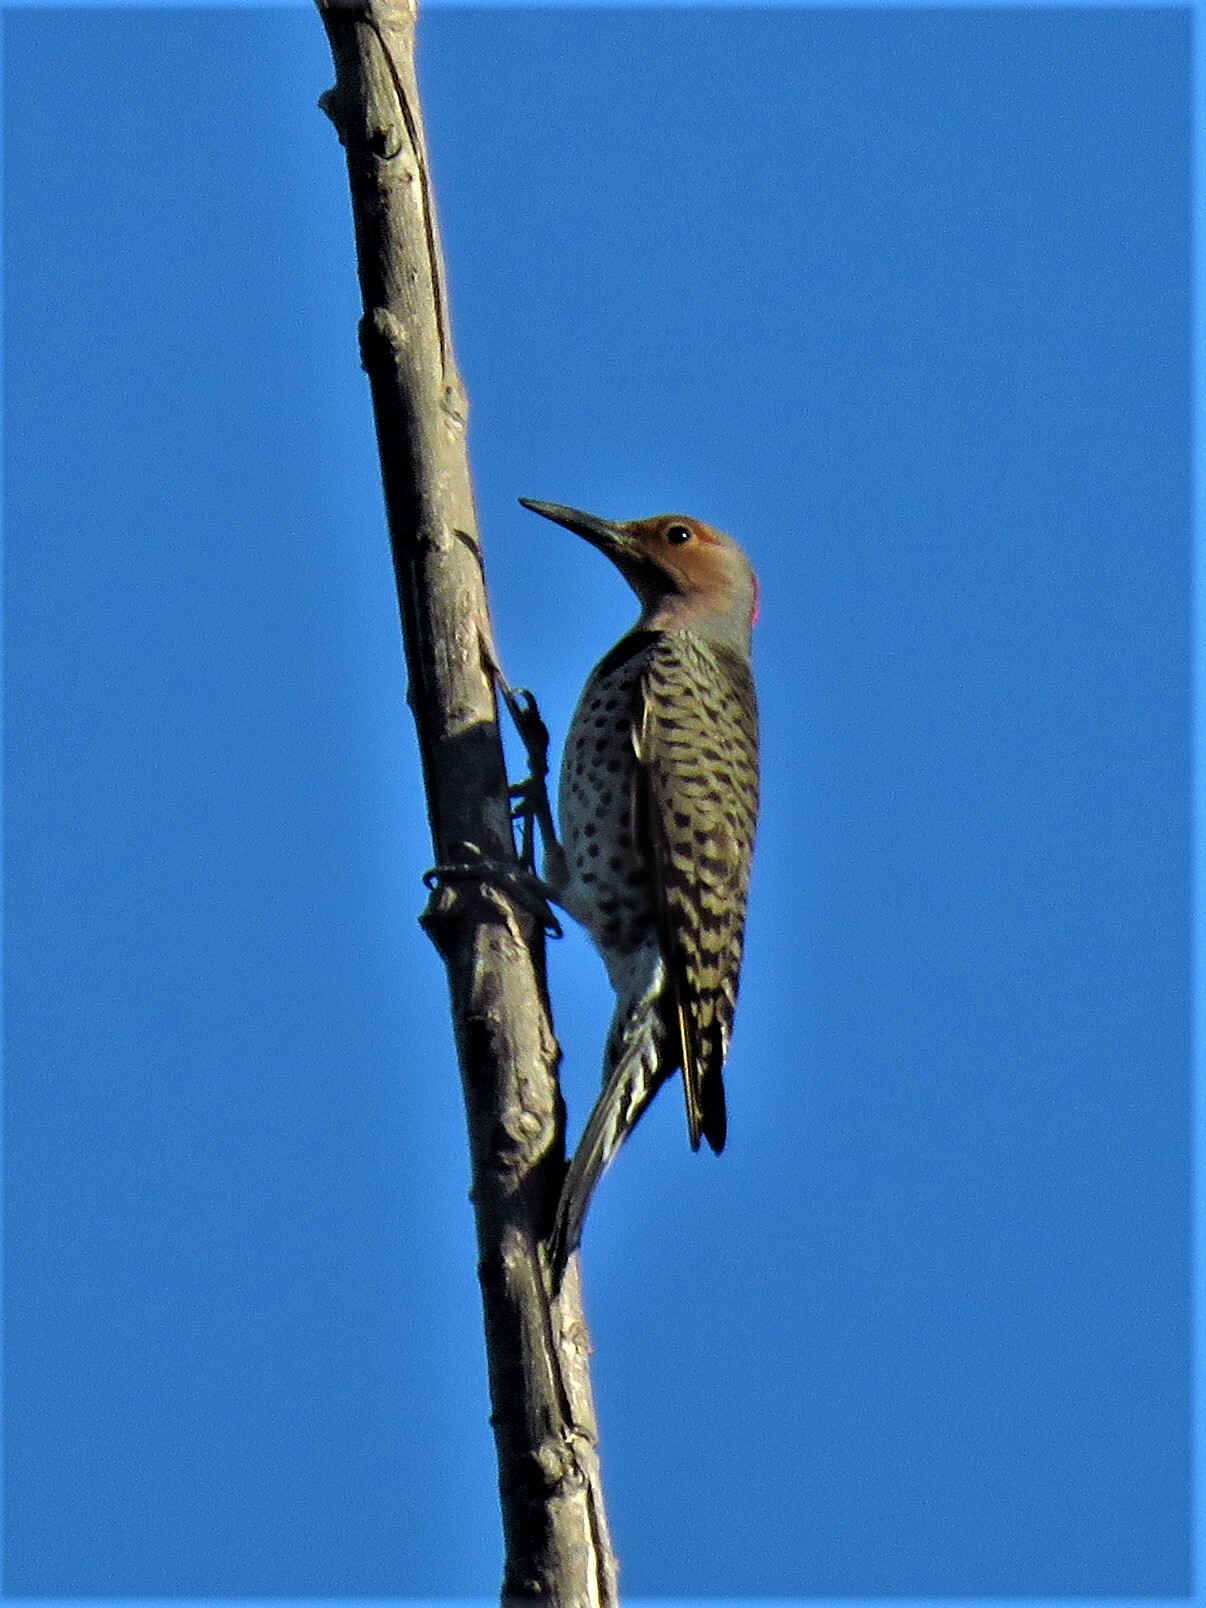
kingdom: Animalia
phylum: Chordata
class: Aves
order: Piciformes
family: Picidae
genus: Colaptes
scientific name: Colaptes auratus
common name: Northern flicker
